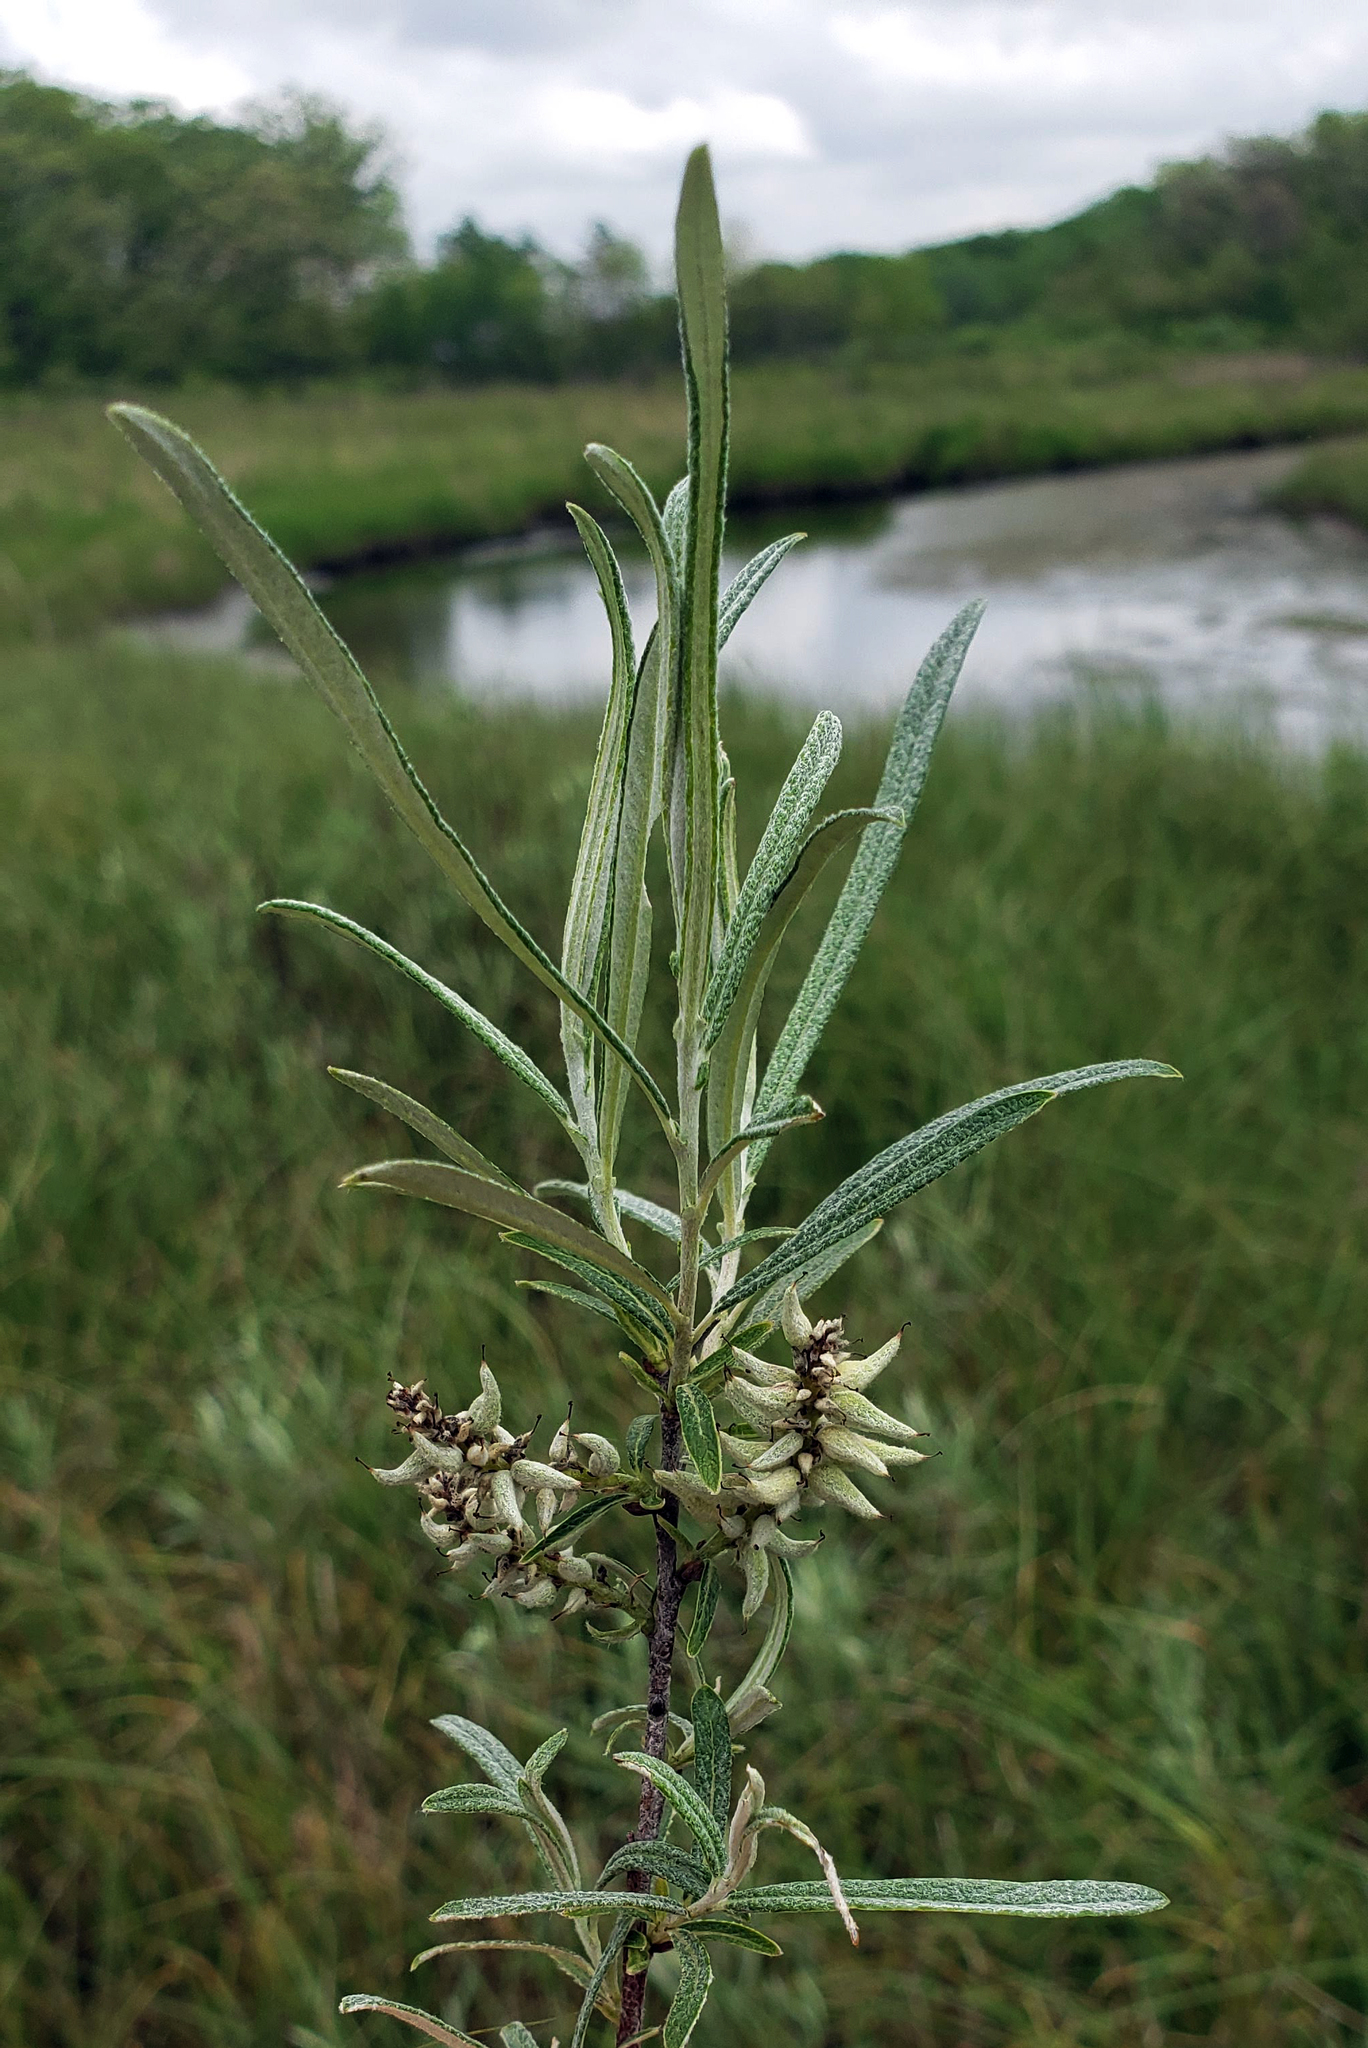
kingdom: Plantae
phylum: Tracheophyta
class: Magnoliopsida
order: Malpighiales
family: Salicaceae
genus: Salix
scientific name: Salix candida
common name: Hoary willow
